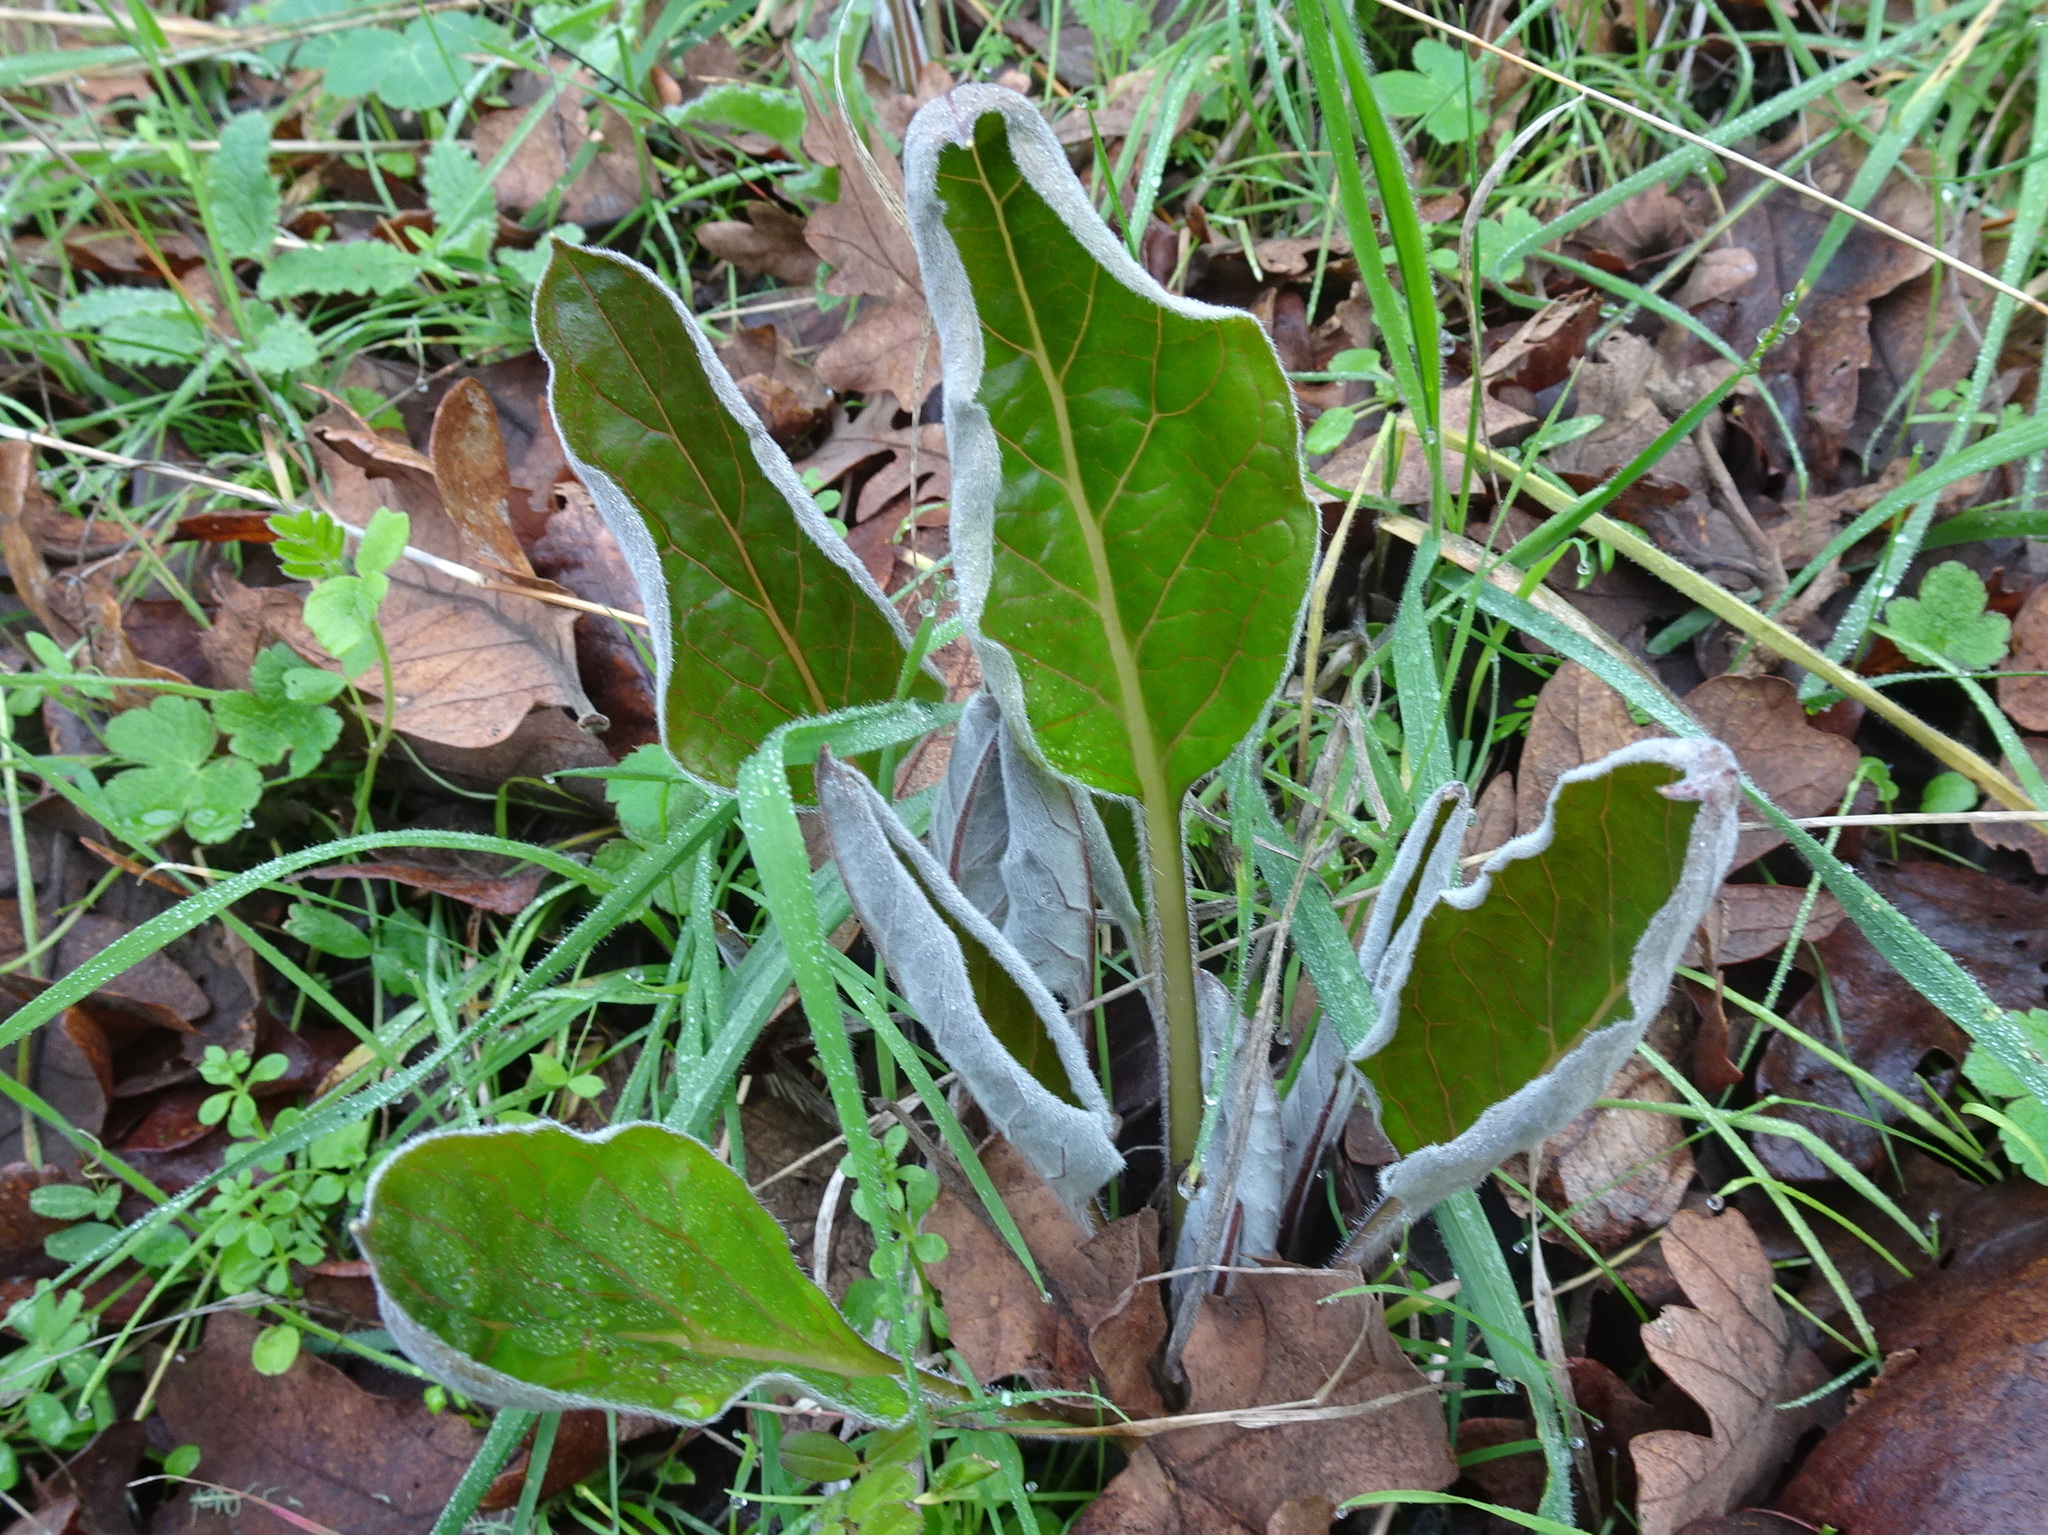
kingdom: Plantae
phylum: Tracheophyta
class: Magnoliopsida
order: Boraginales
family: Boraginaceae
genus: Adelinia
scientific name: Adelinia grande
